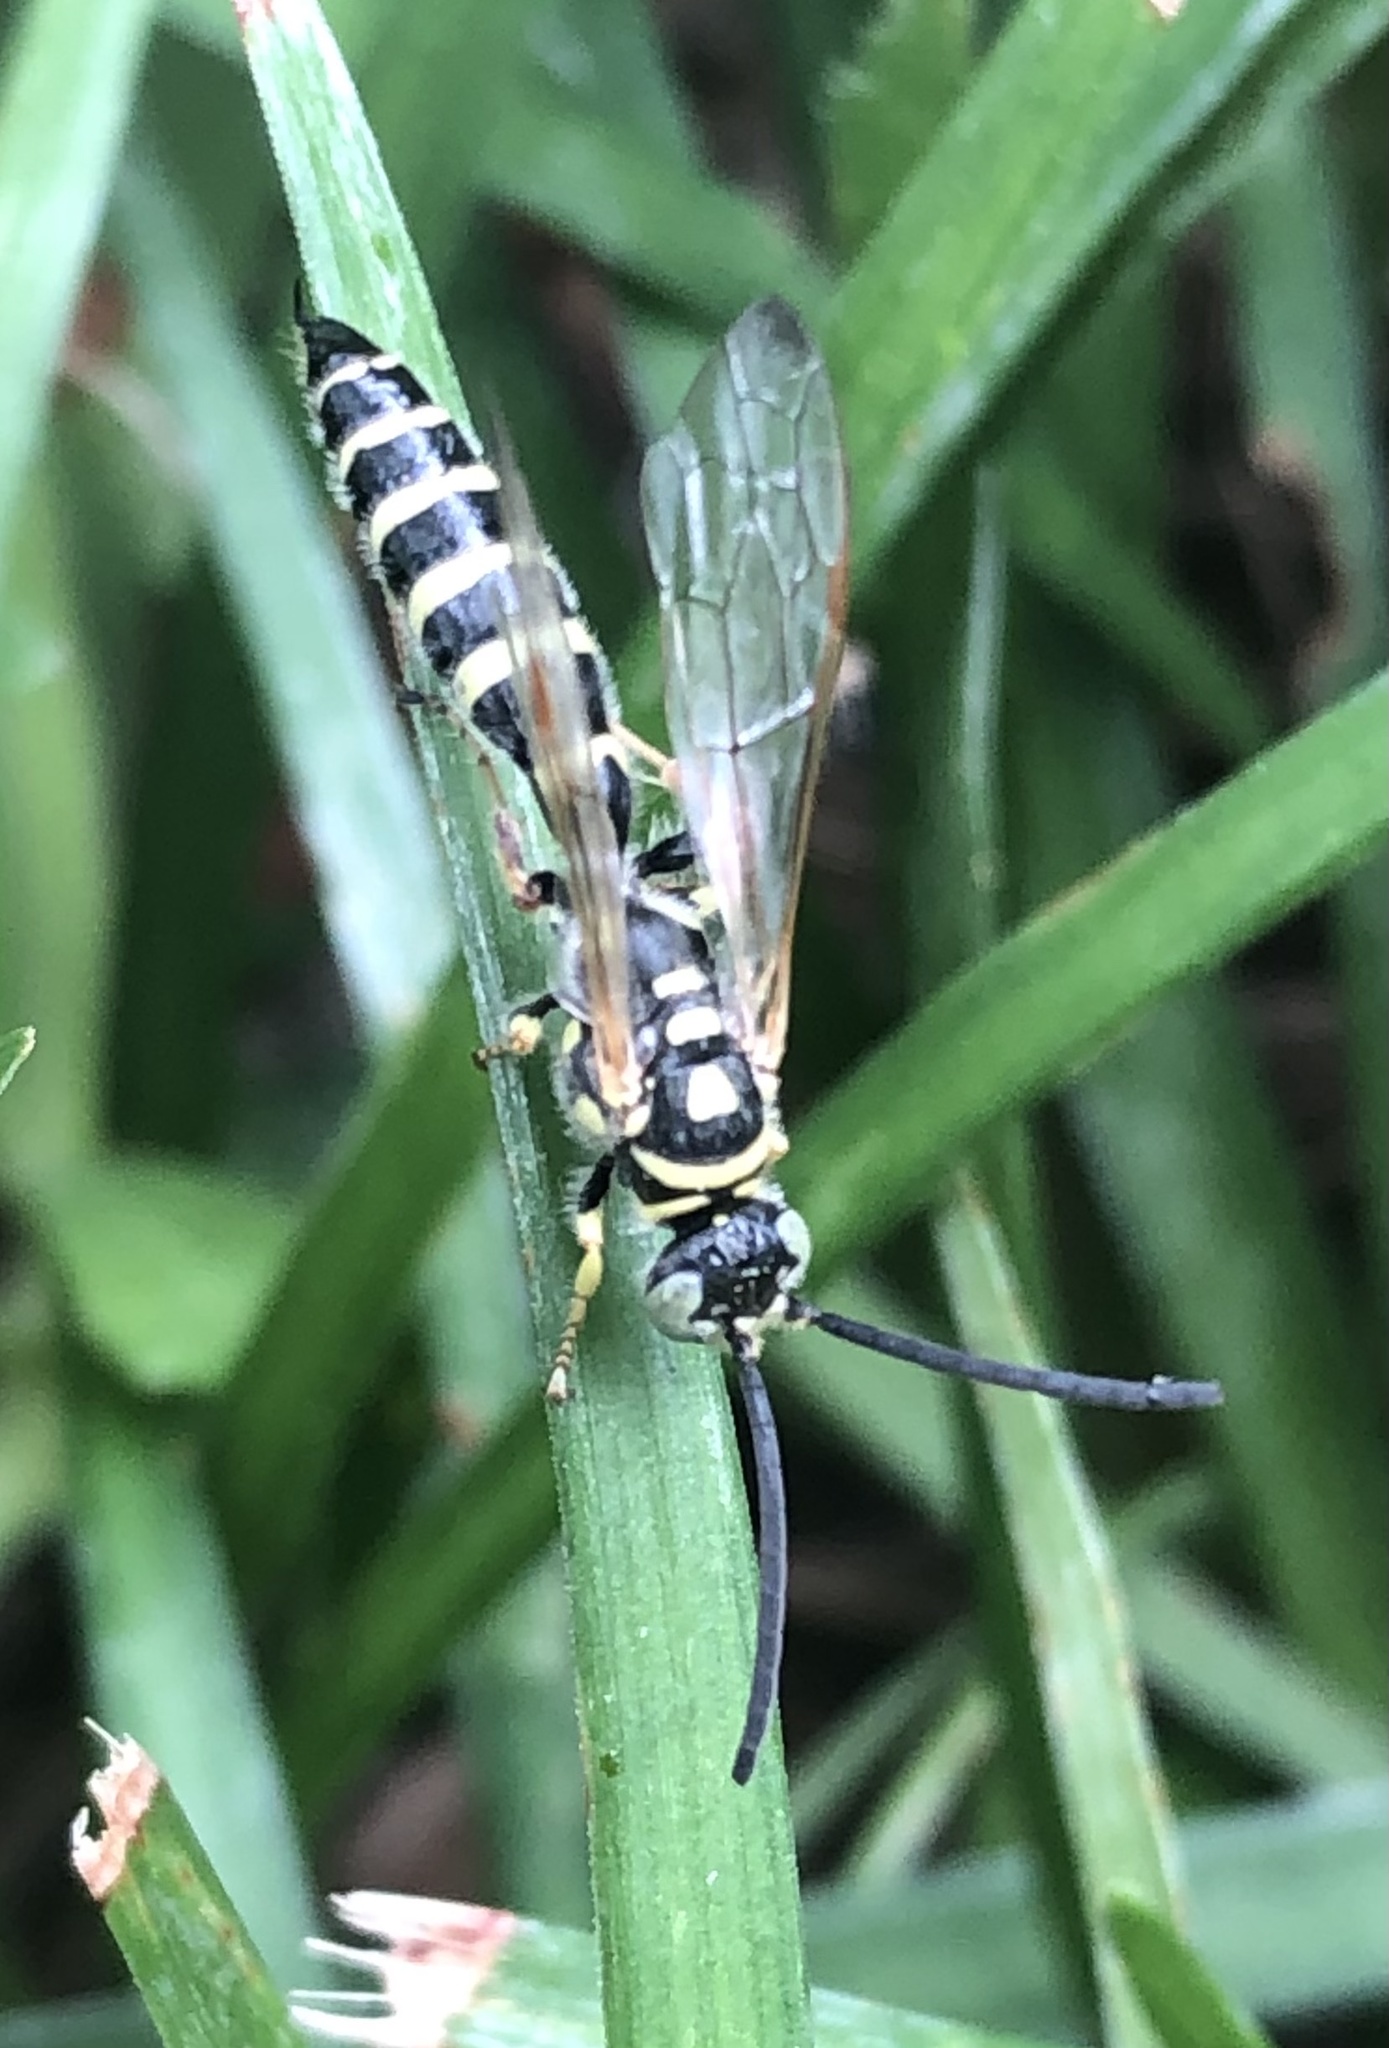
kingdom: Animalia
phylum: Arthropoda
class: Insecta
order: Hymenoptera
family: Tiphiidae
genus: Myzinum
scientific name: Myzinum
